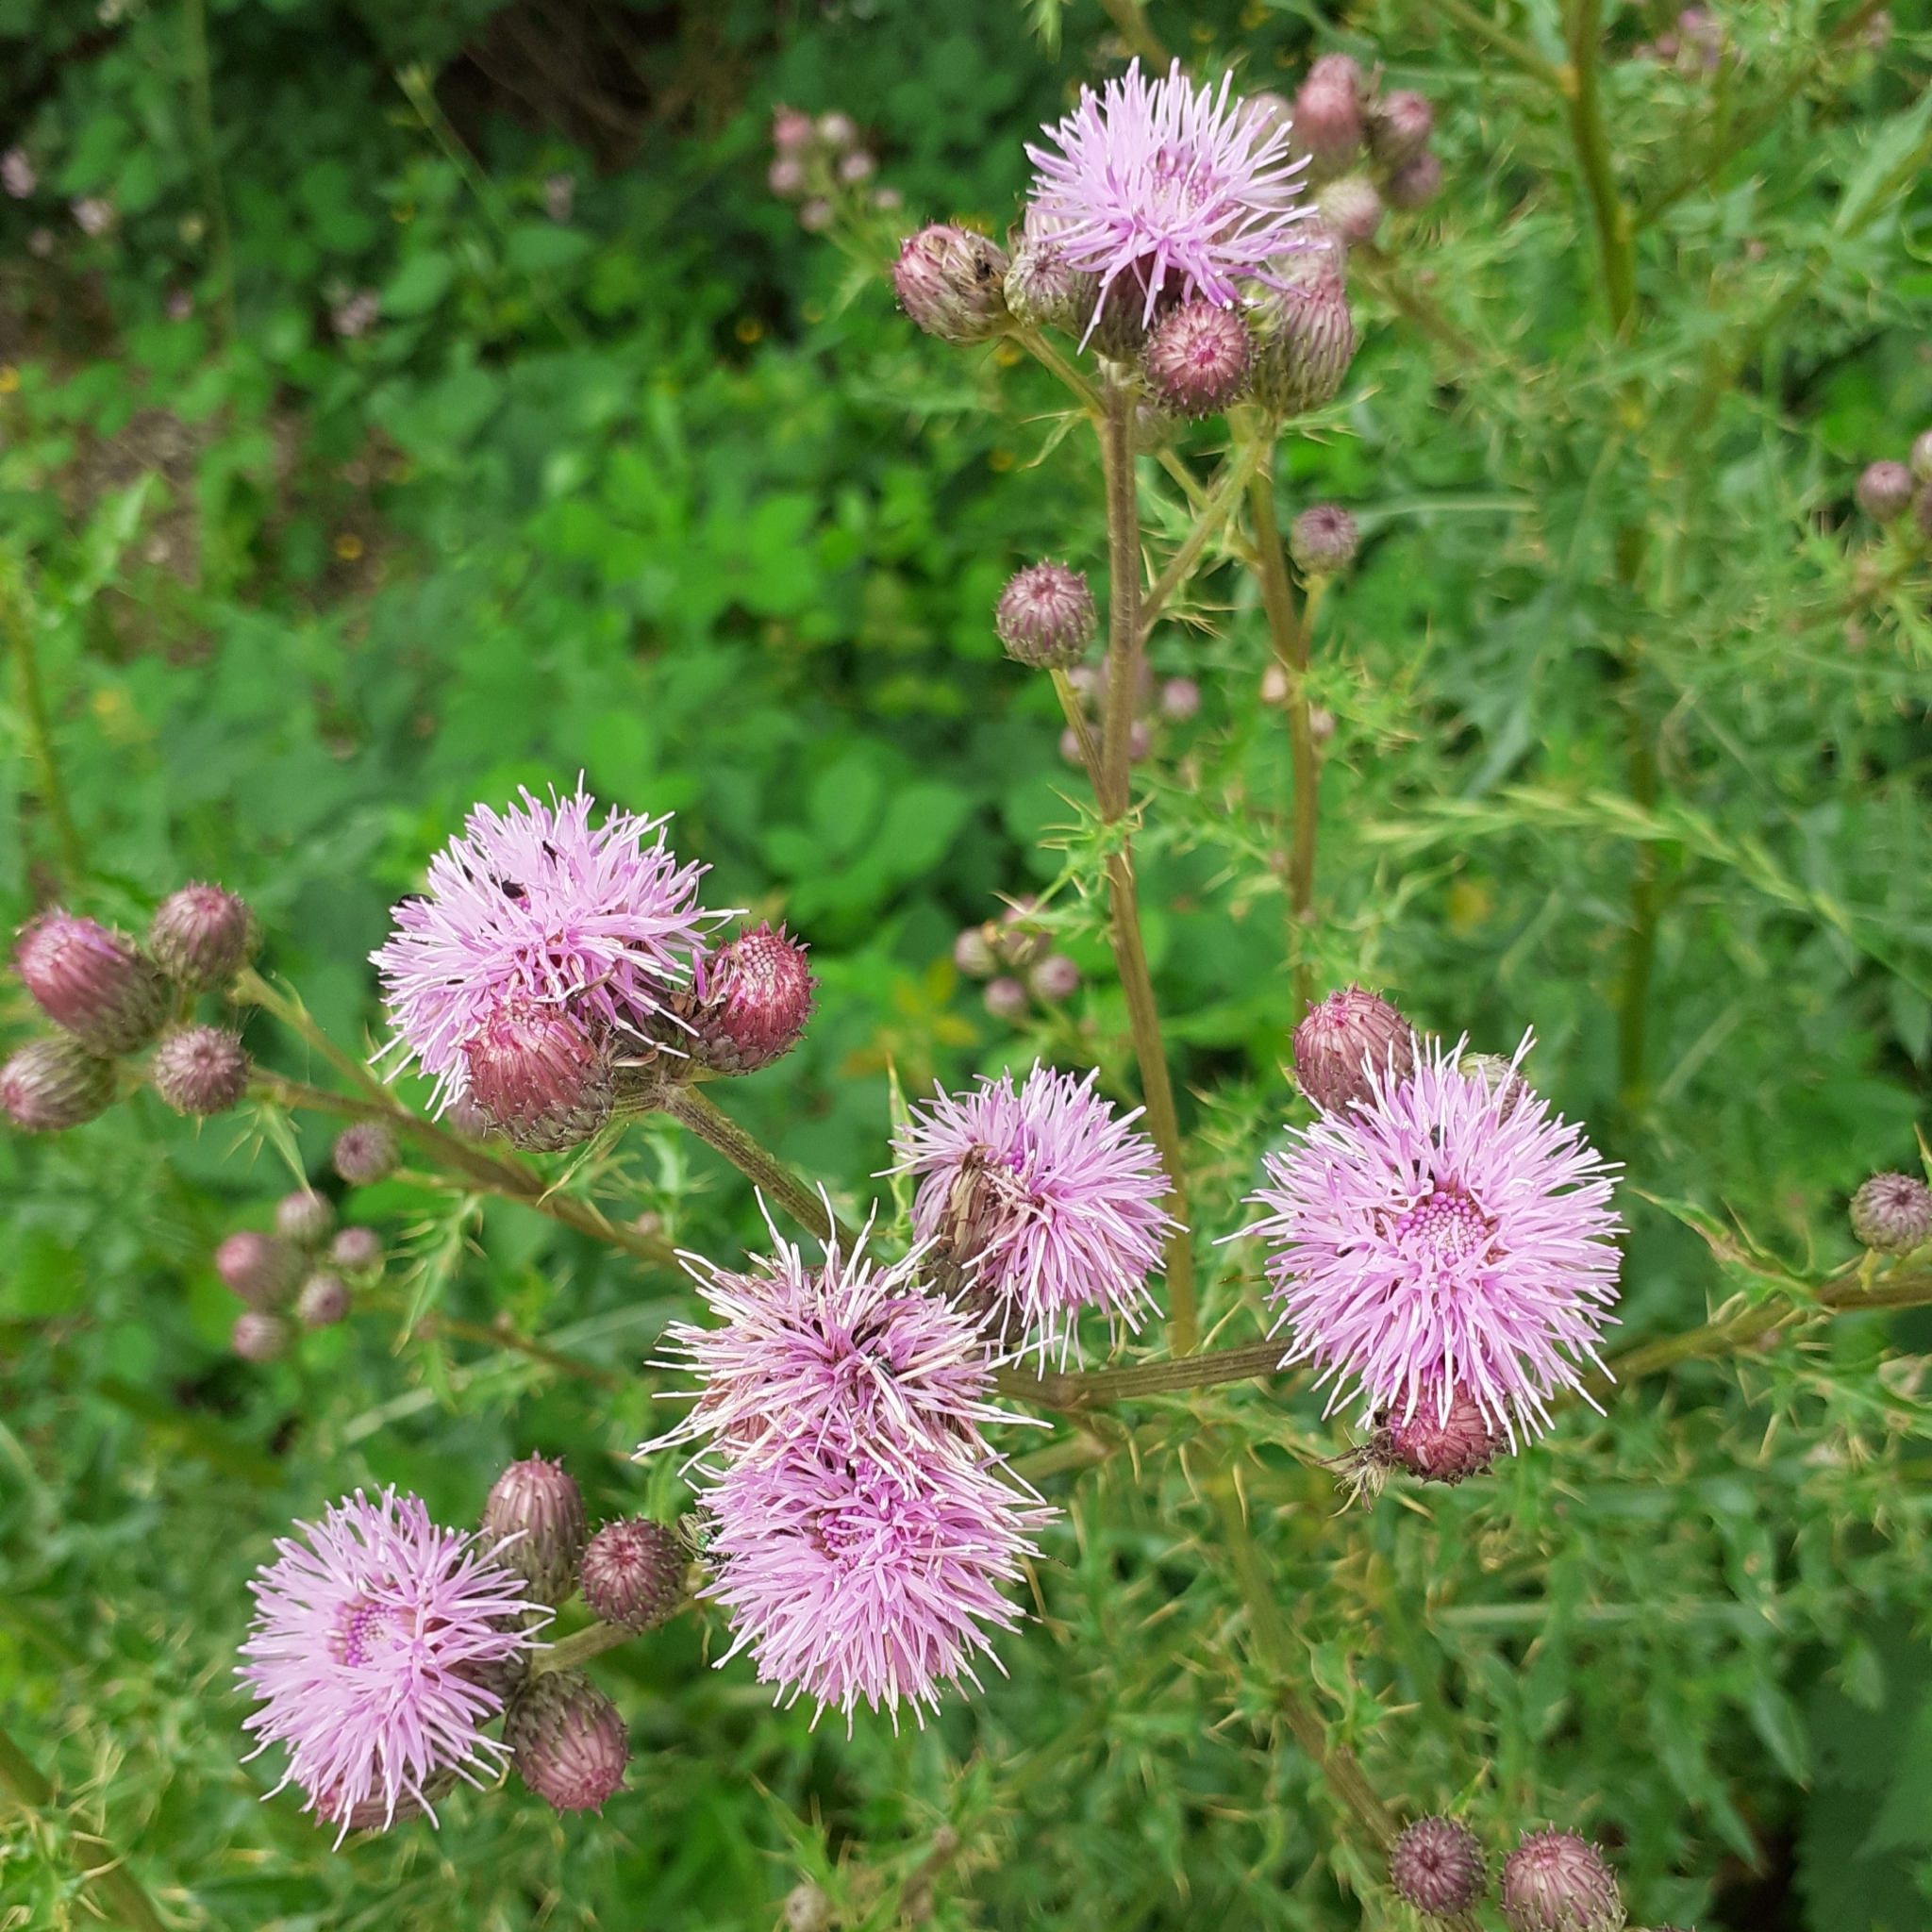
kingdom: Plantae
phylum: Tracheophyta
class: Magnoliopsida
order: Asterales
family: Asteraceae
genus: Cirsium
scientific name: Cirsium arvense
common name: Creeping thistle
